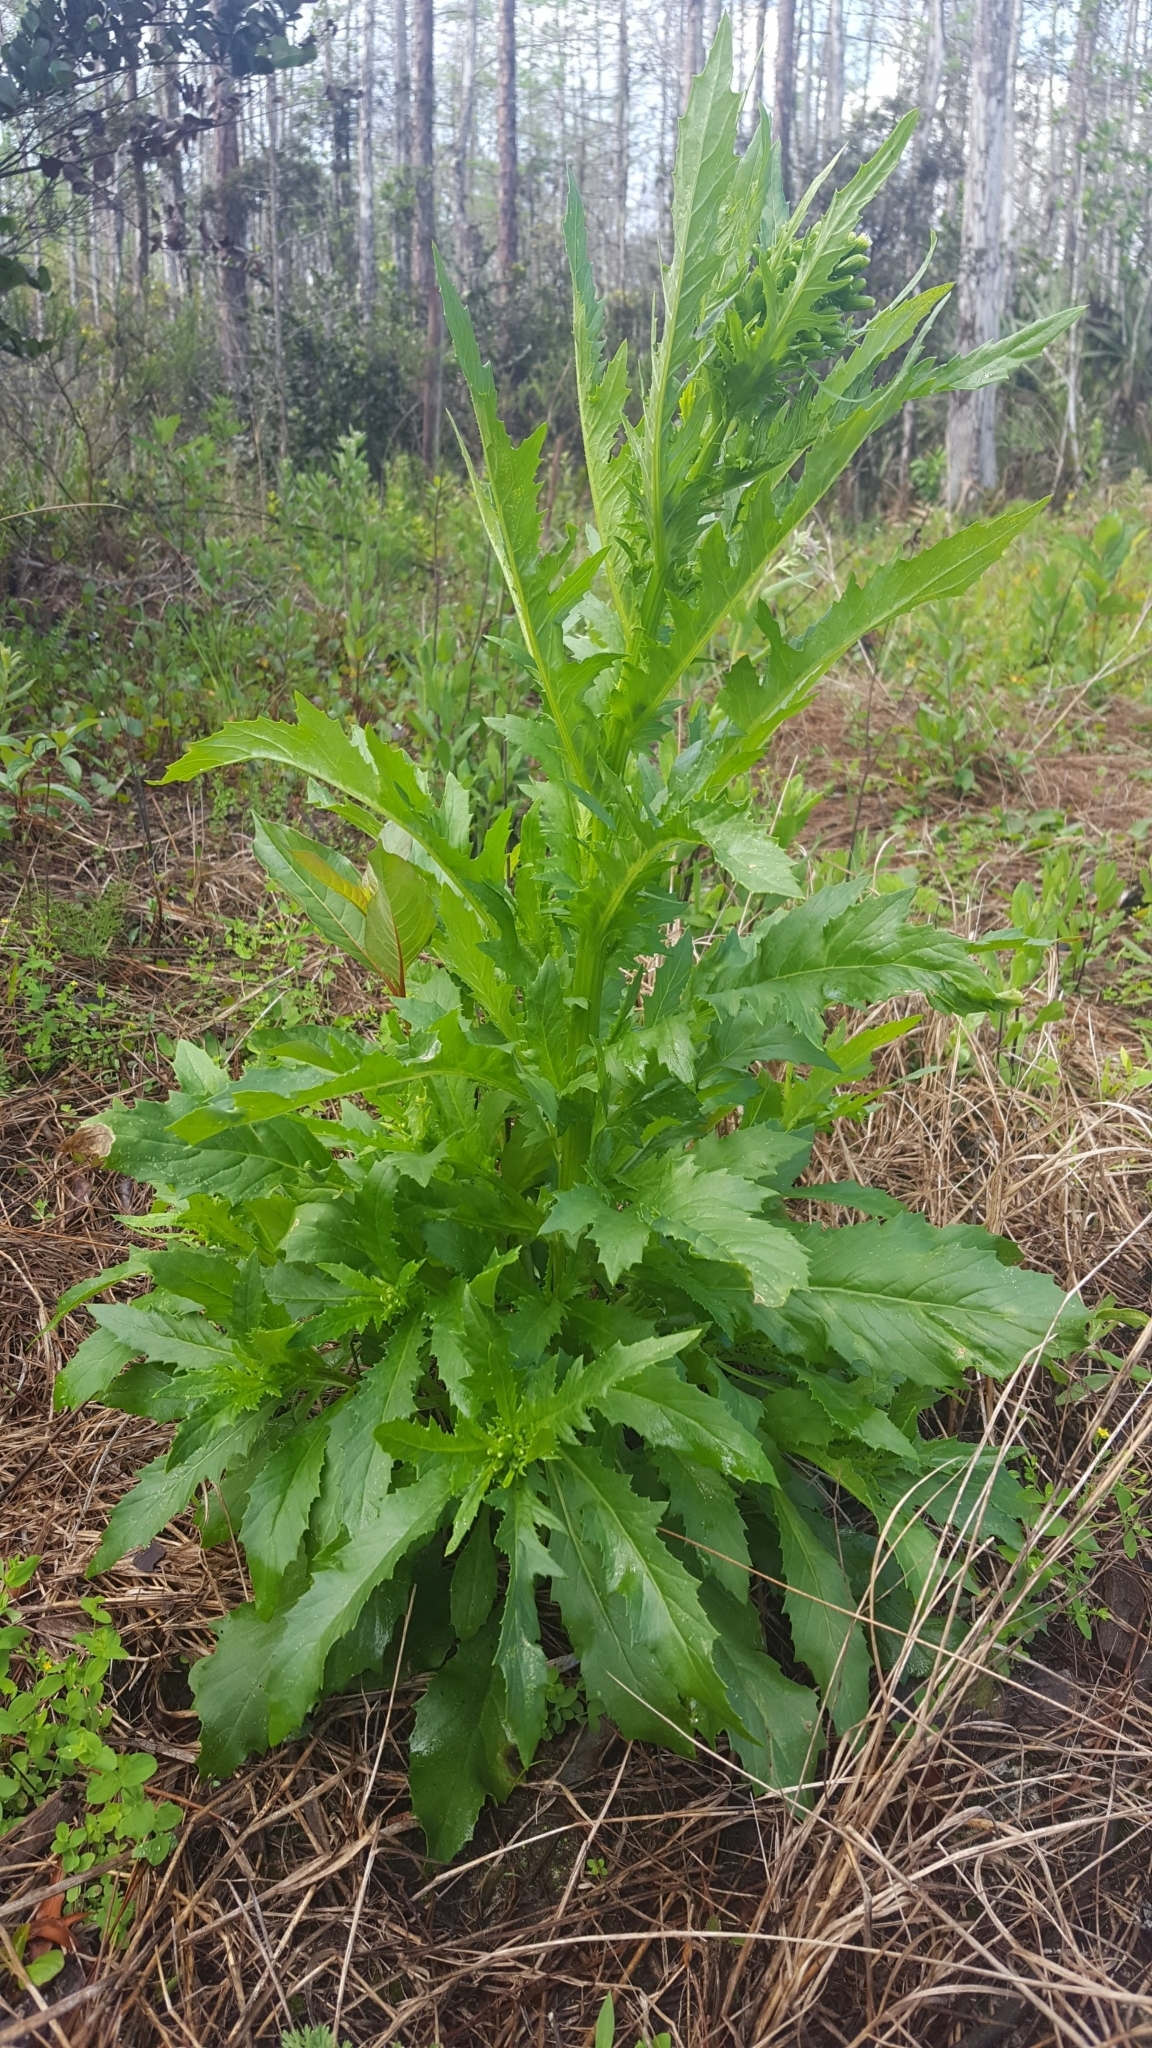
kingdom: Plantae
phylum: Tracheophyta
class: Magnoliopsida
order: Asterales
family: Asteraceae
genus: Erechtites
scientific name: Erechtites hieraciifolius
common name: American burnweed
